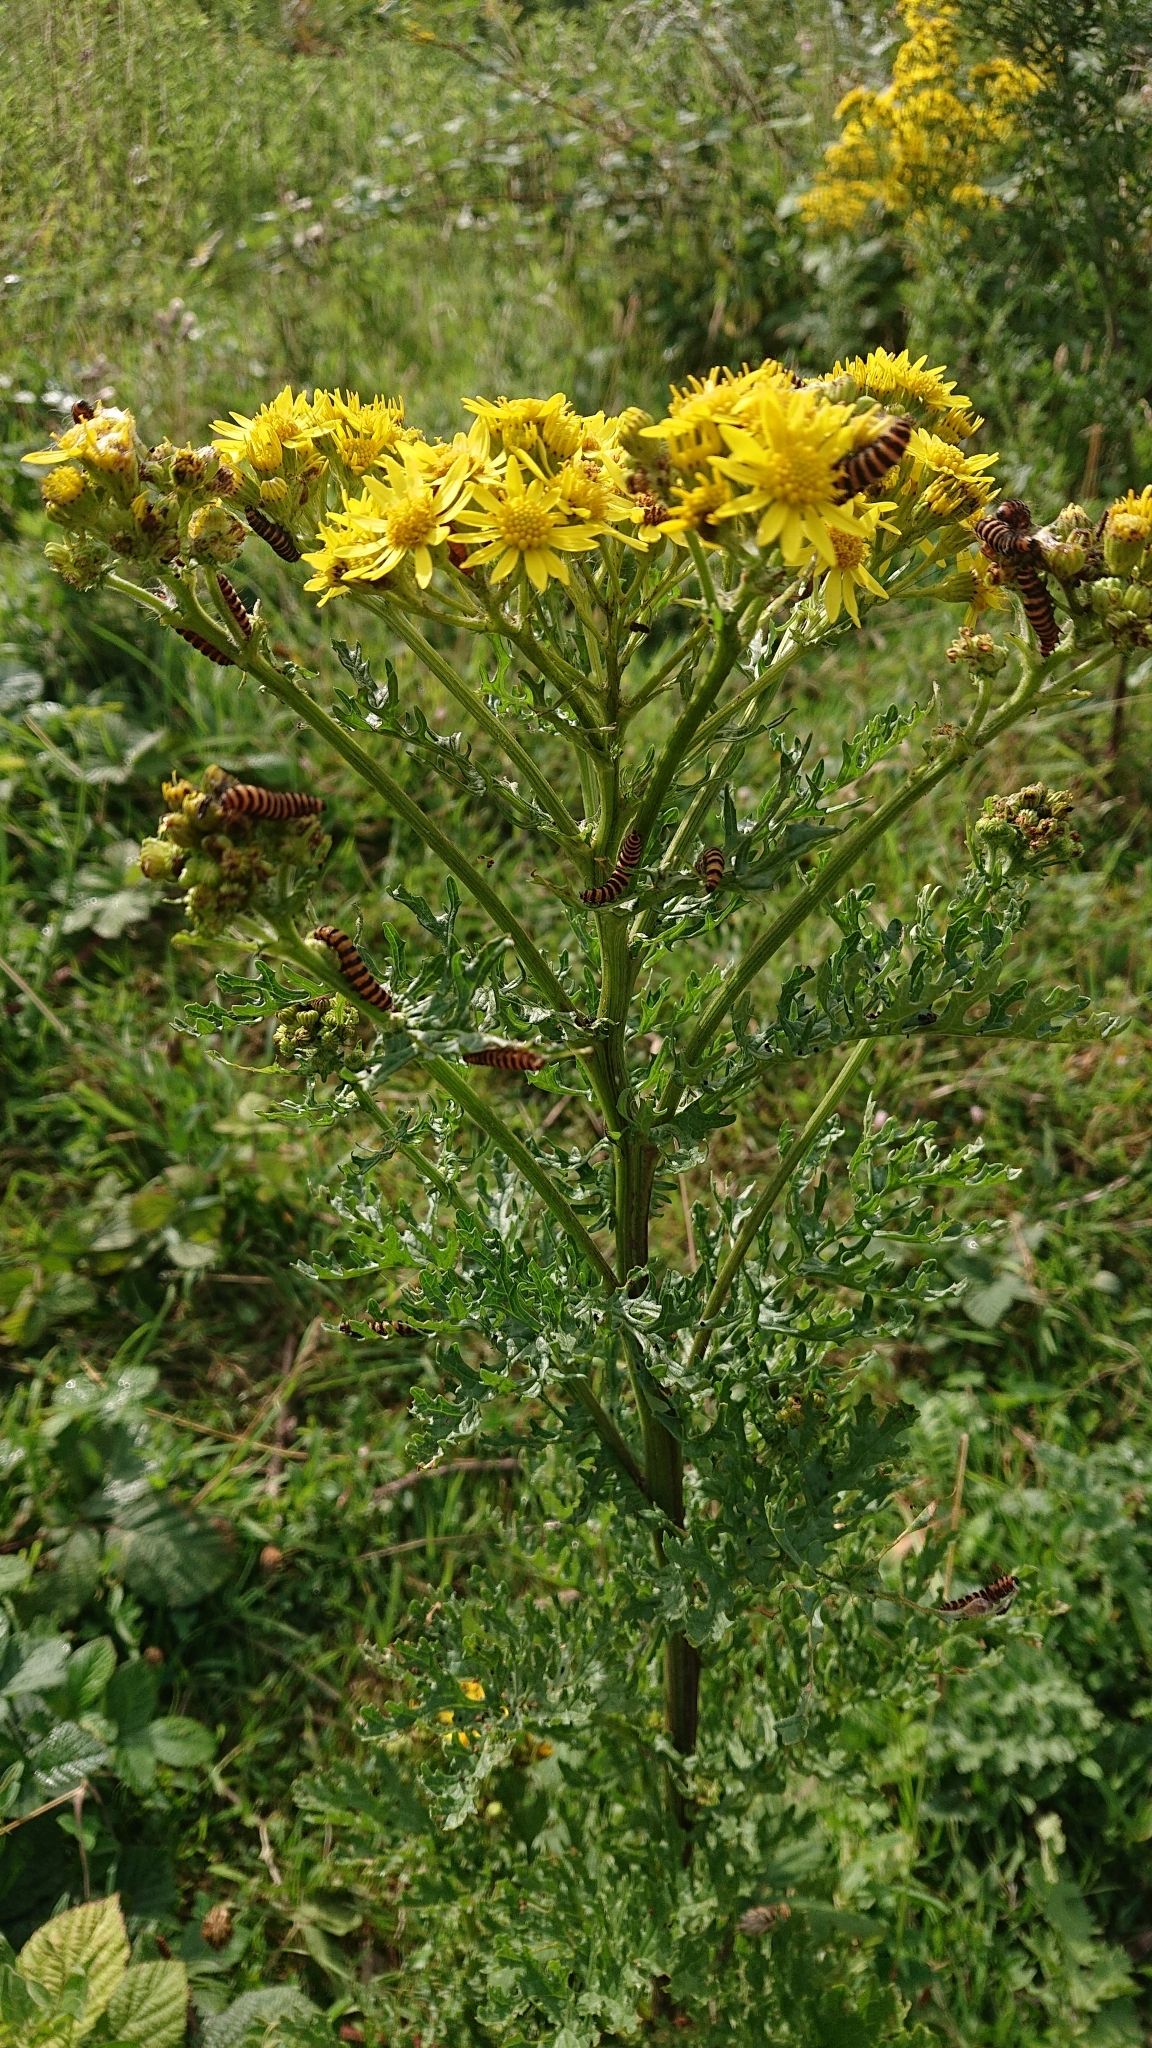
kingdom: Animalia
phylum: Arthropoda
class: Insecta
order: Lepidoptera
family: Erebidae
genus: Tyria
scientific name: Tyria jacobaeae
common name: Cinnabar
